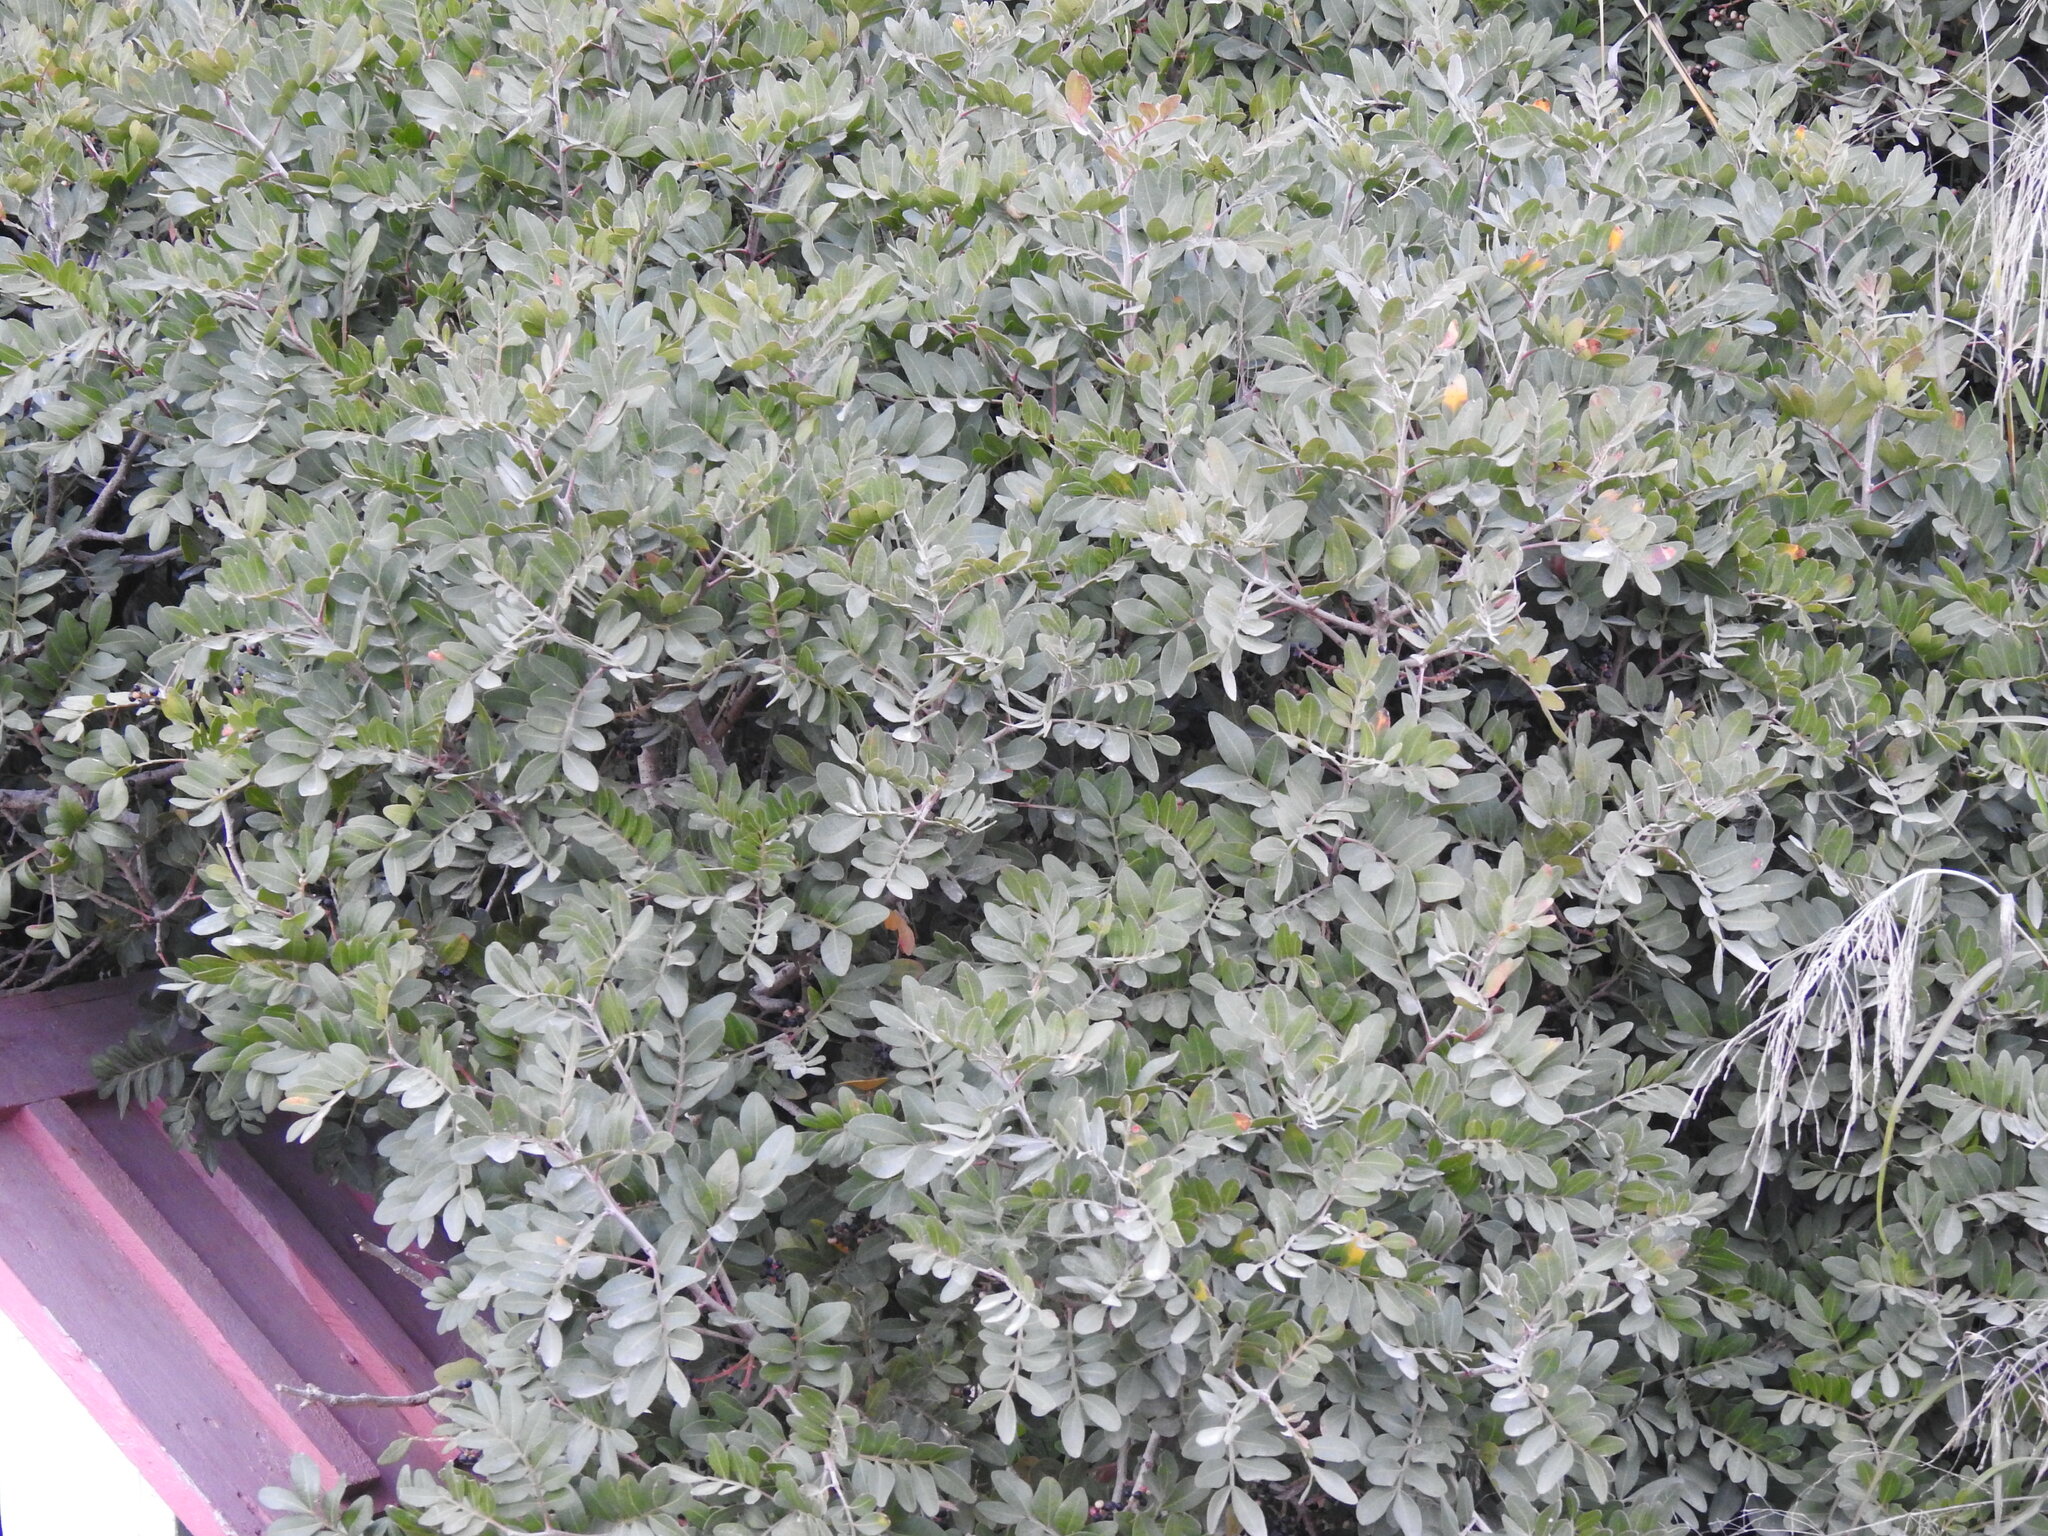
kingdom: Plantae
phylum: Tracheophyta
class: Magnoliopsida
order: Sapindales
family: Anacardiaceae
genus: Pistacia
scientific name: Pistacia lentiscus
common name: Lentisk
